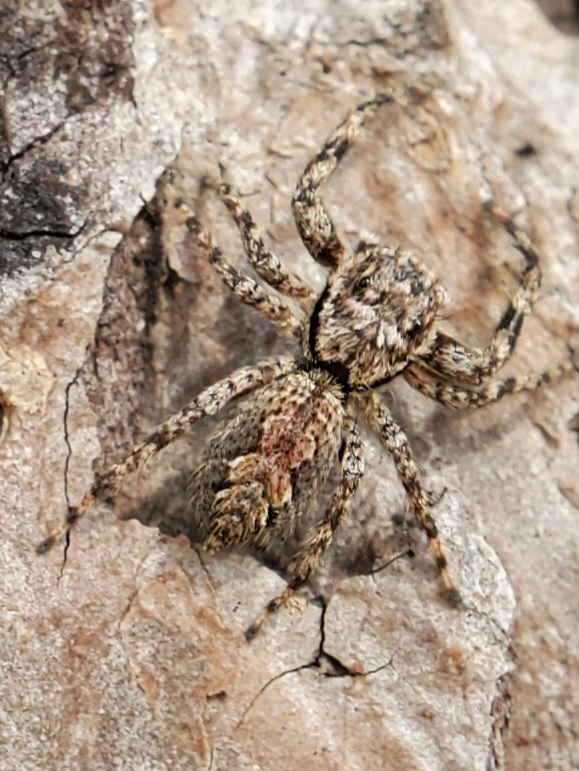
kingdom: Animalia
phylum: Arthropoda
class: Arachnida
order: Araneae
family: Salticidae
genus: Platycryptus
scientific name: Platycryptus undatus
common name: Tan jumping spider
